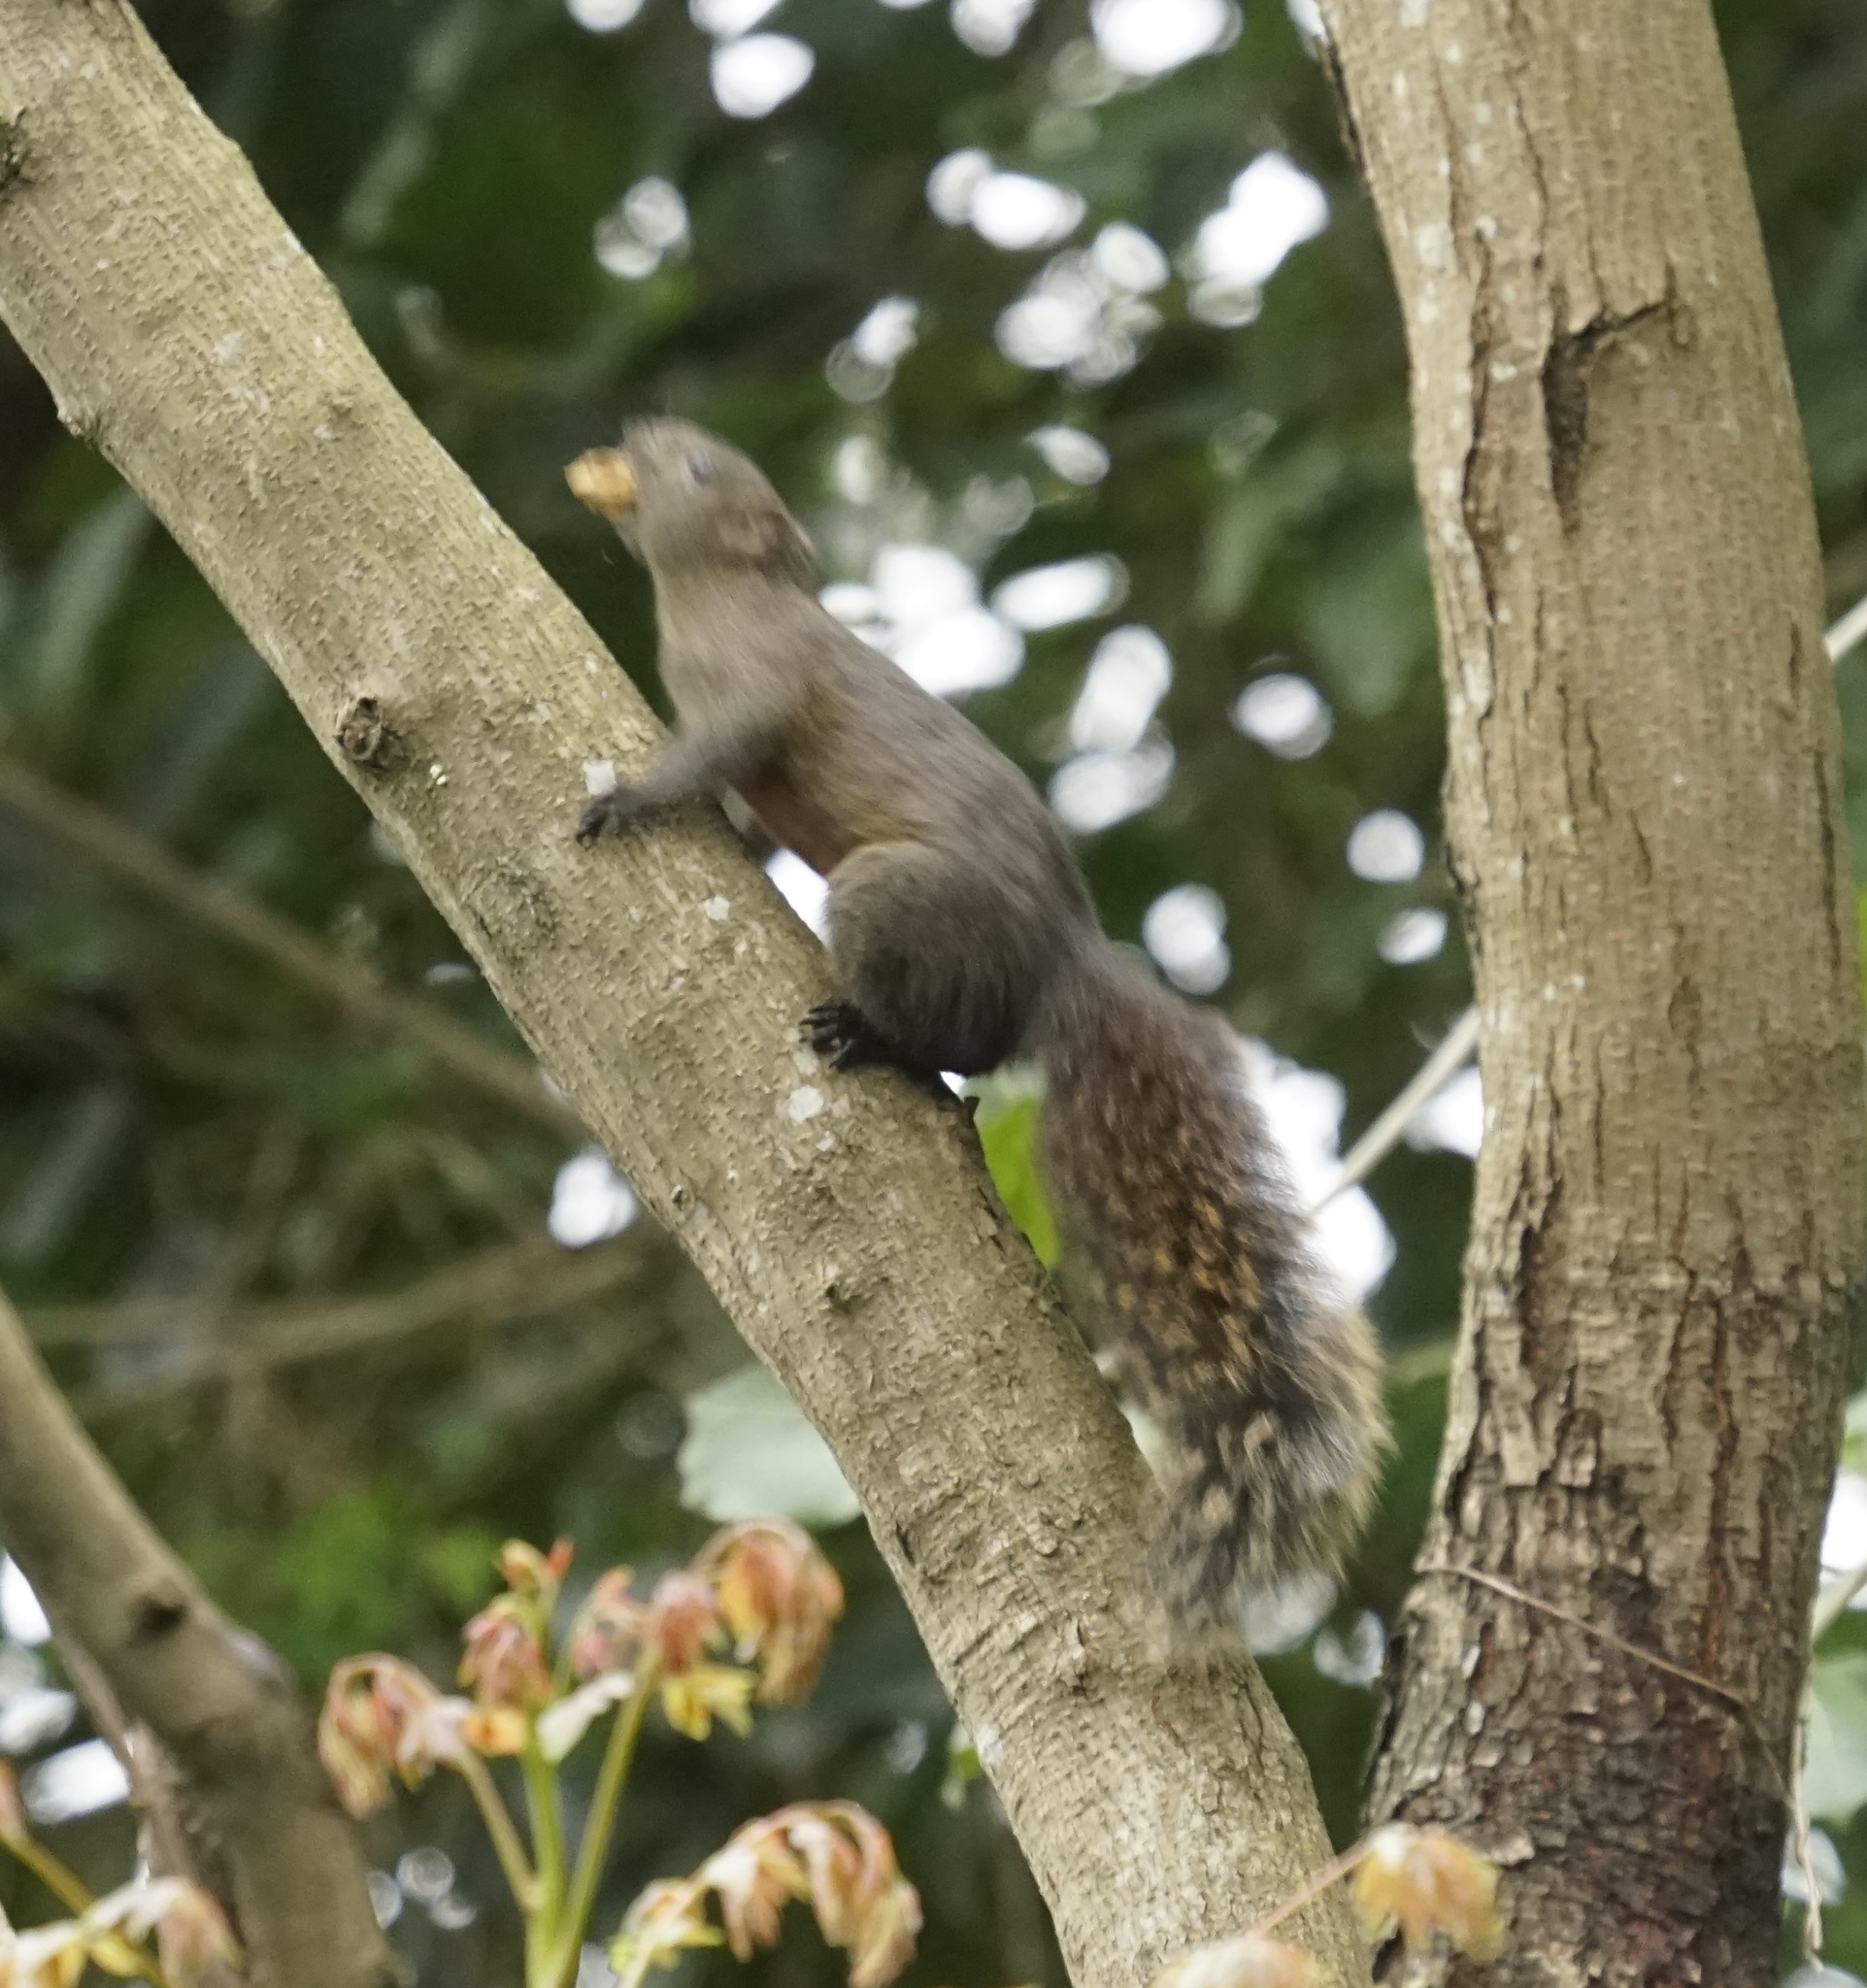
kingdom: Animalia
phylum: Chordata
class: Mammalia
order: Rodentia
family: Sciuridae
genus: Callosciurus
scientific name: Callosciurus erythraeus
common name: Pallas's squirrel
